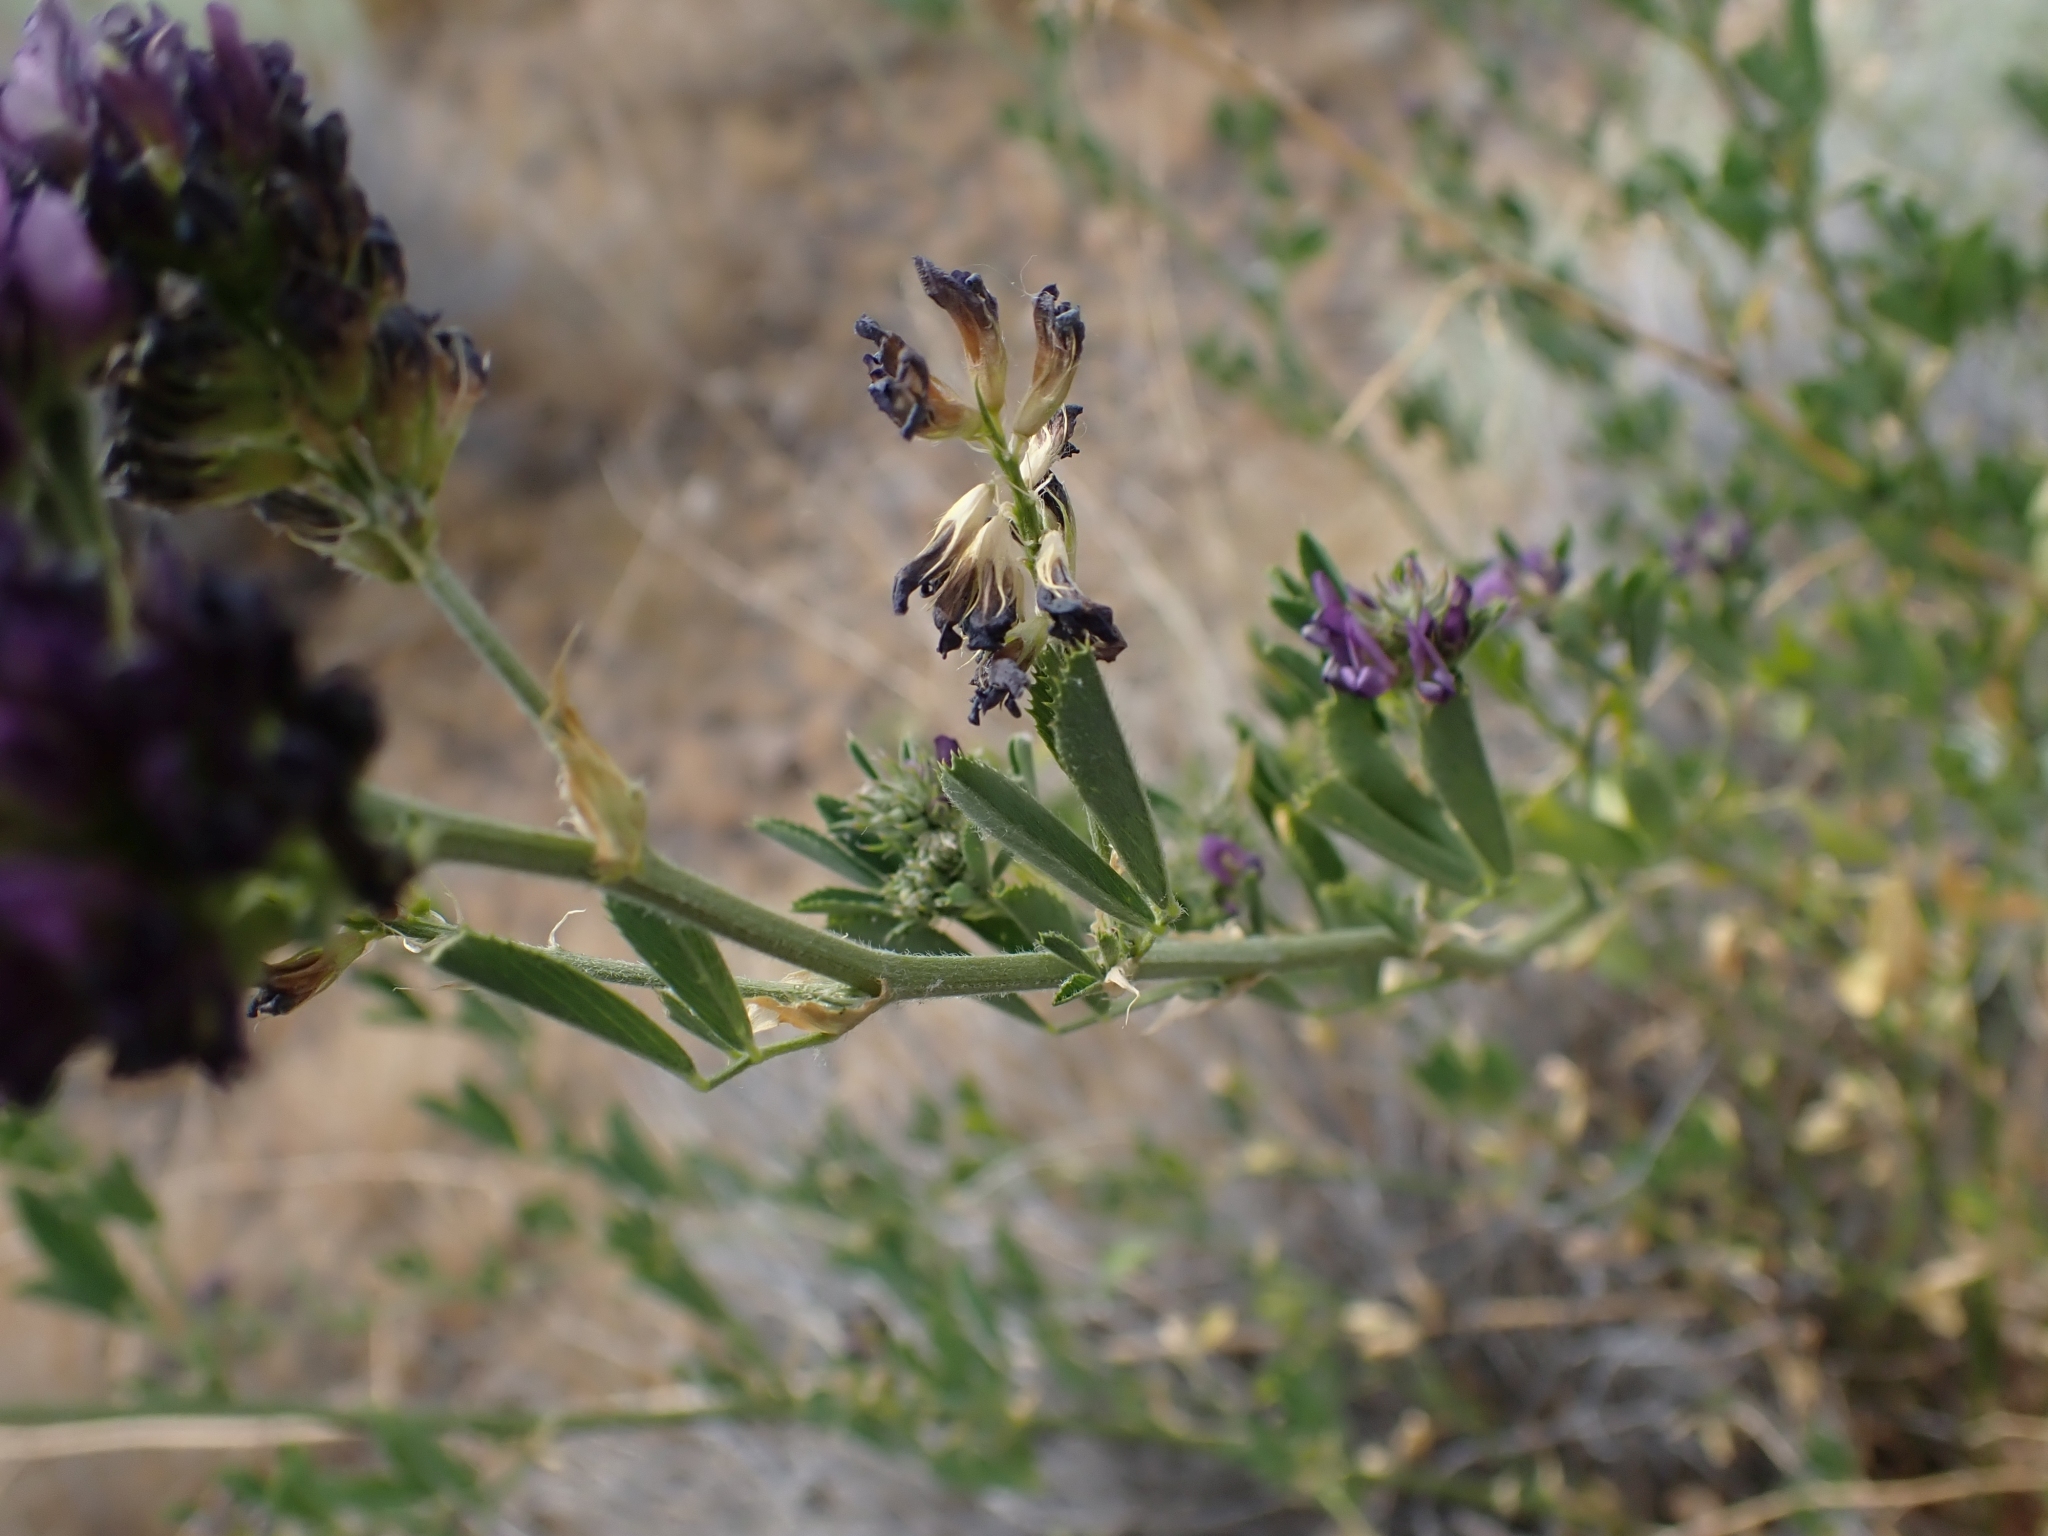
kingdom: Plantae
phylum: Tracheophyta
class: Magnoliopsida
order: Fabales
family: Fabaceae
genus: Medicago
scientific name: Medicago sativa
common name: Alfalfa
